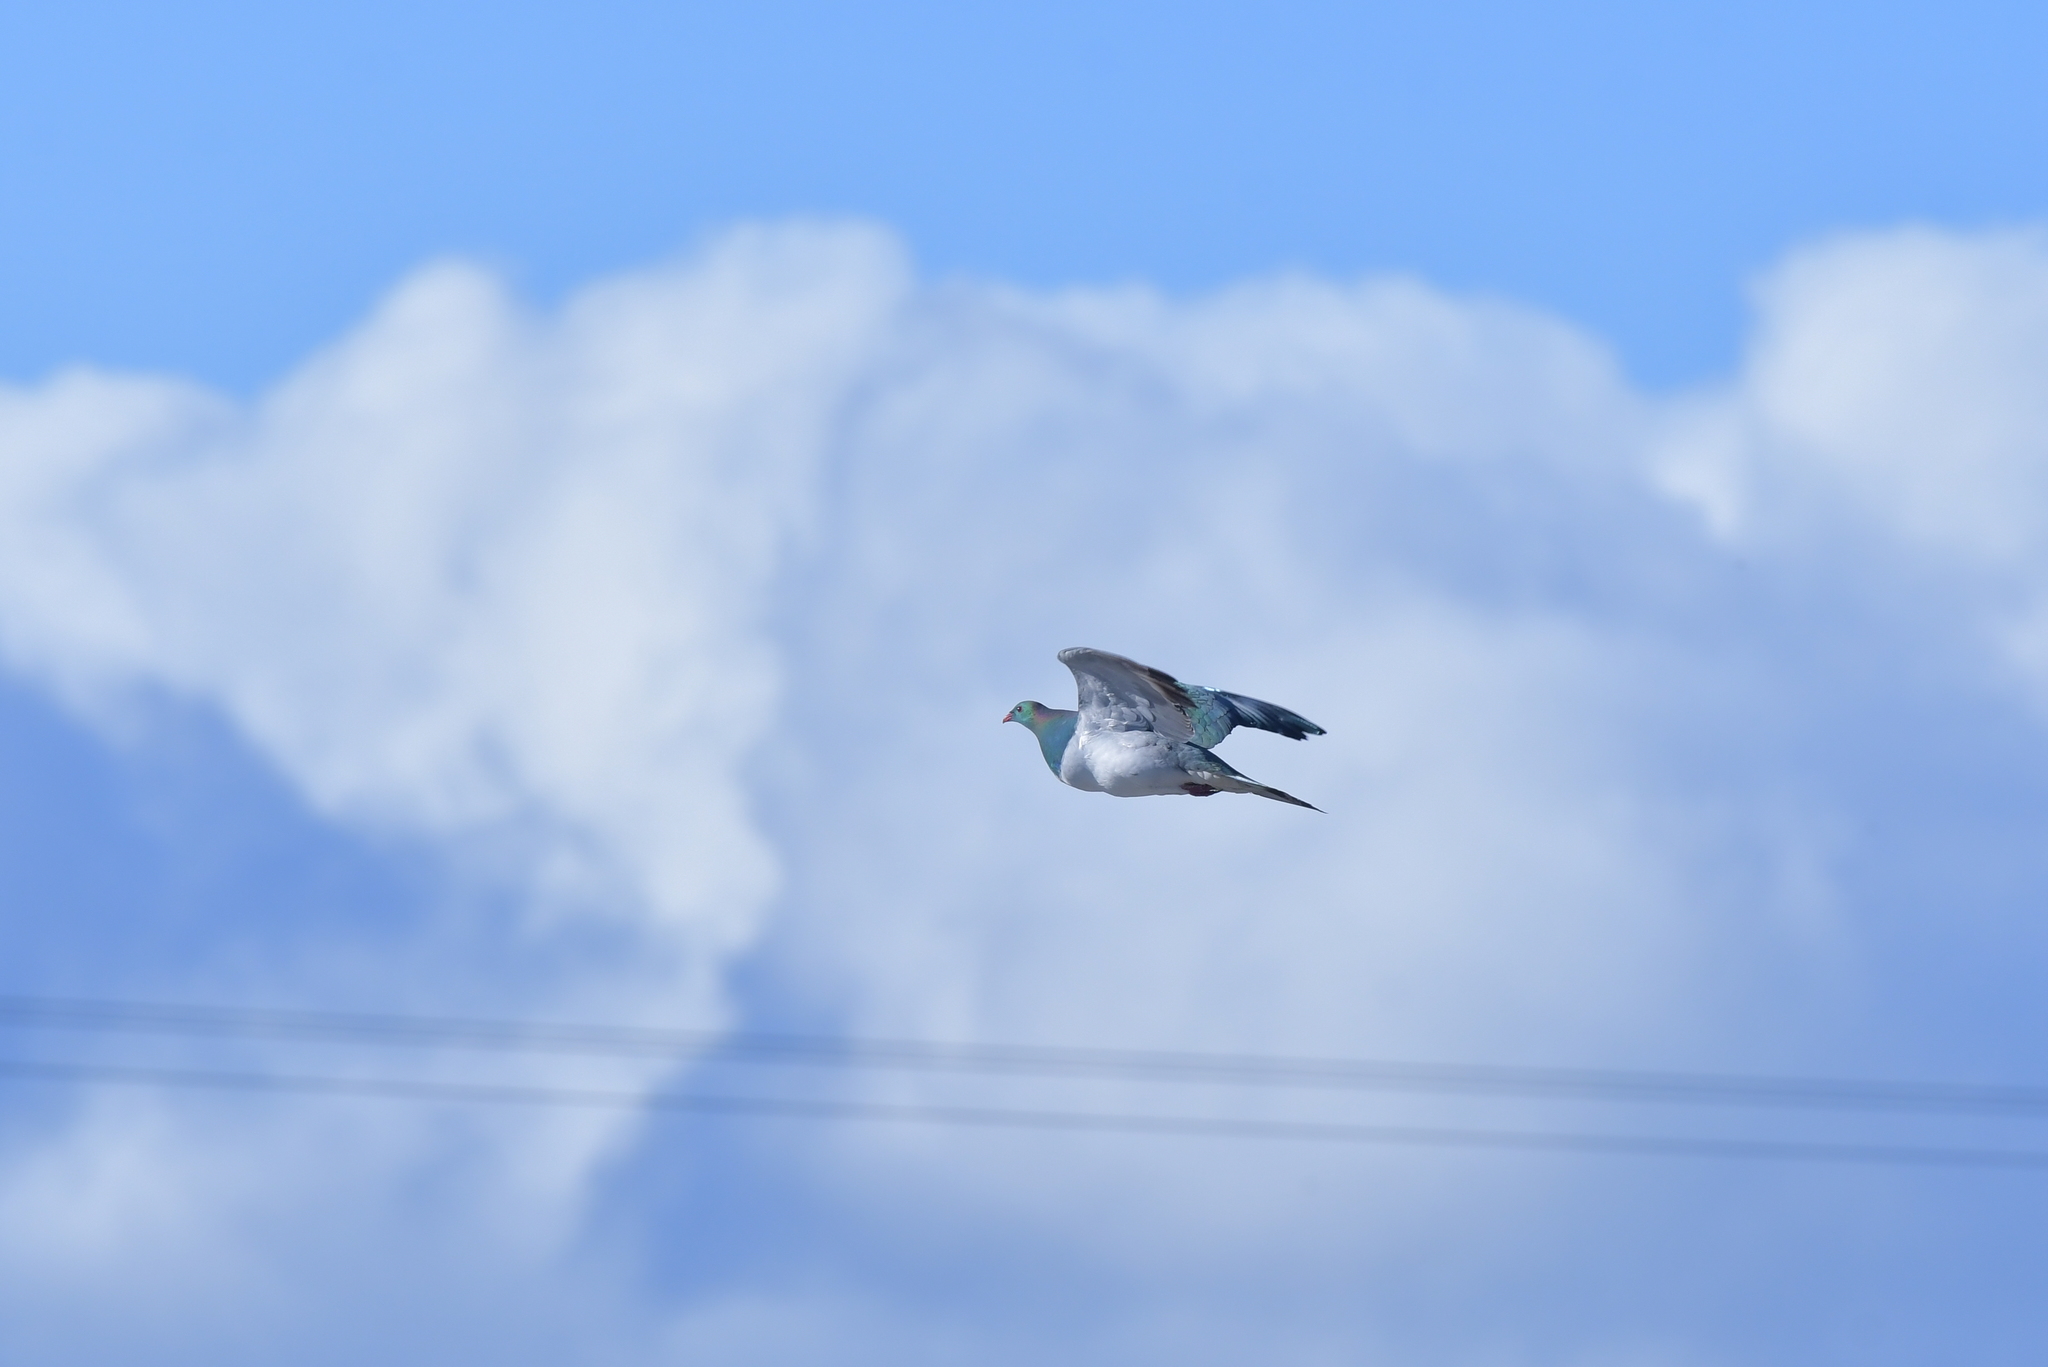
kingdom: Animalia
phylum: Chordata
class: Aves
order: Columbiformes
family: Columbidae
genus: Hemiphaga
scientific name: Hemiphaga novaeseelandiae
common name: New zealand pigeon
